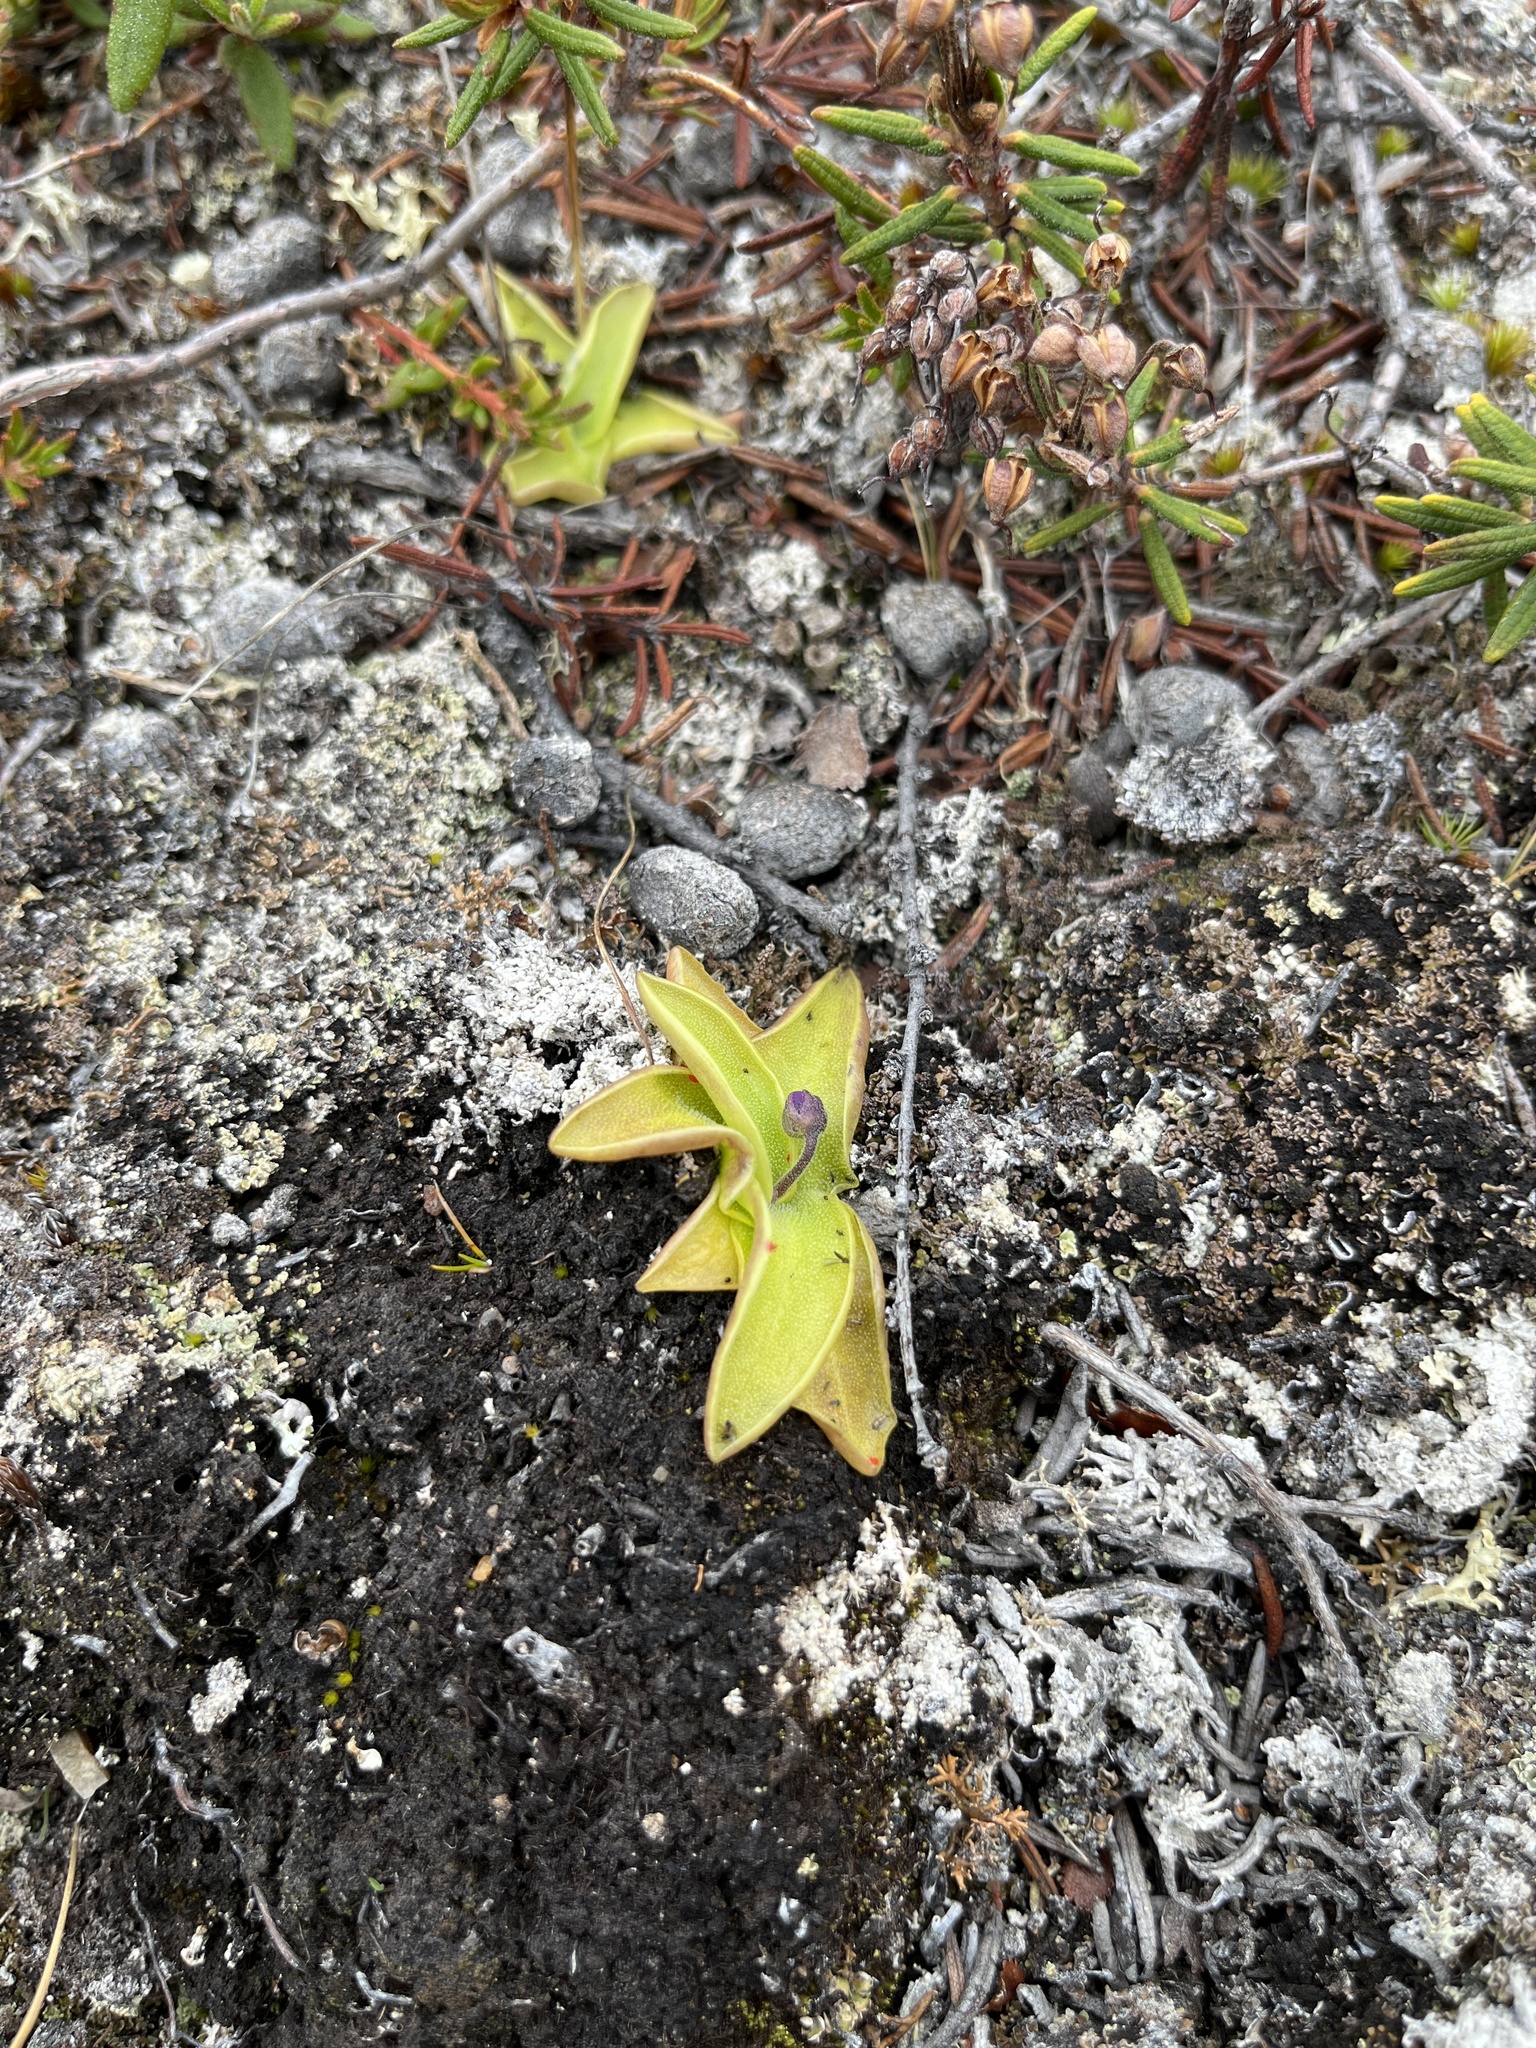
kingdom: Plantae
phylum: Tracheophyta
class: Magnoliopsida
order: Lamiales
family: Lentibulariaceae
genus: Pinguicula
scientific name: Pinguicula vulgaris
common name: Common butterwort
